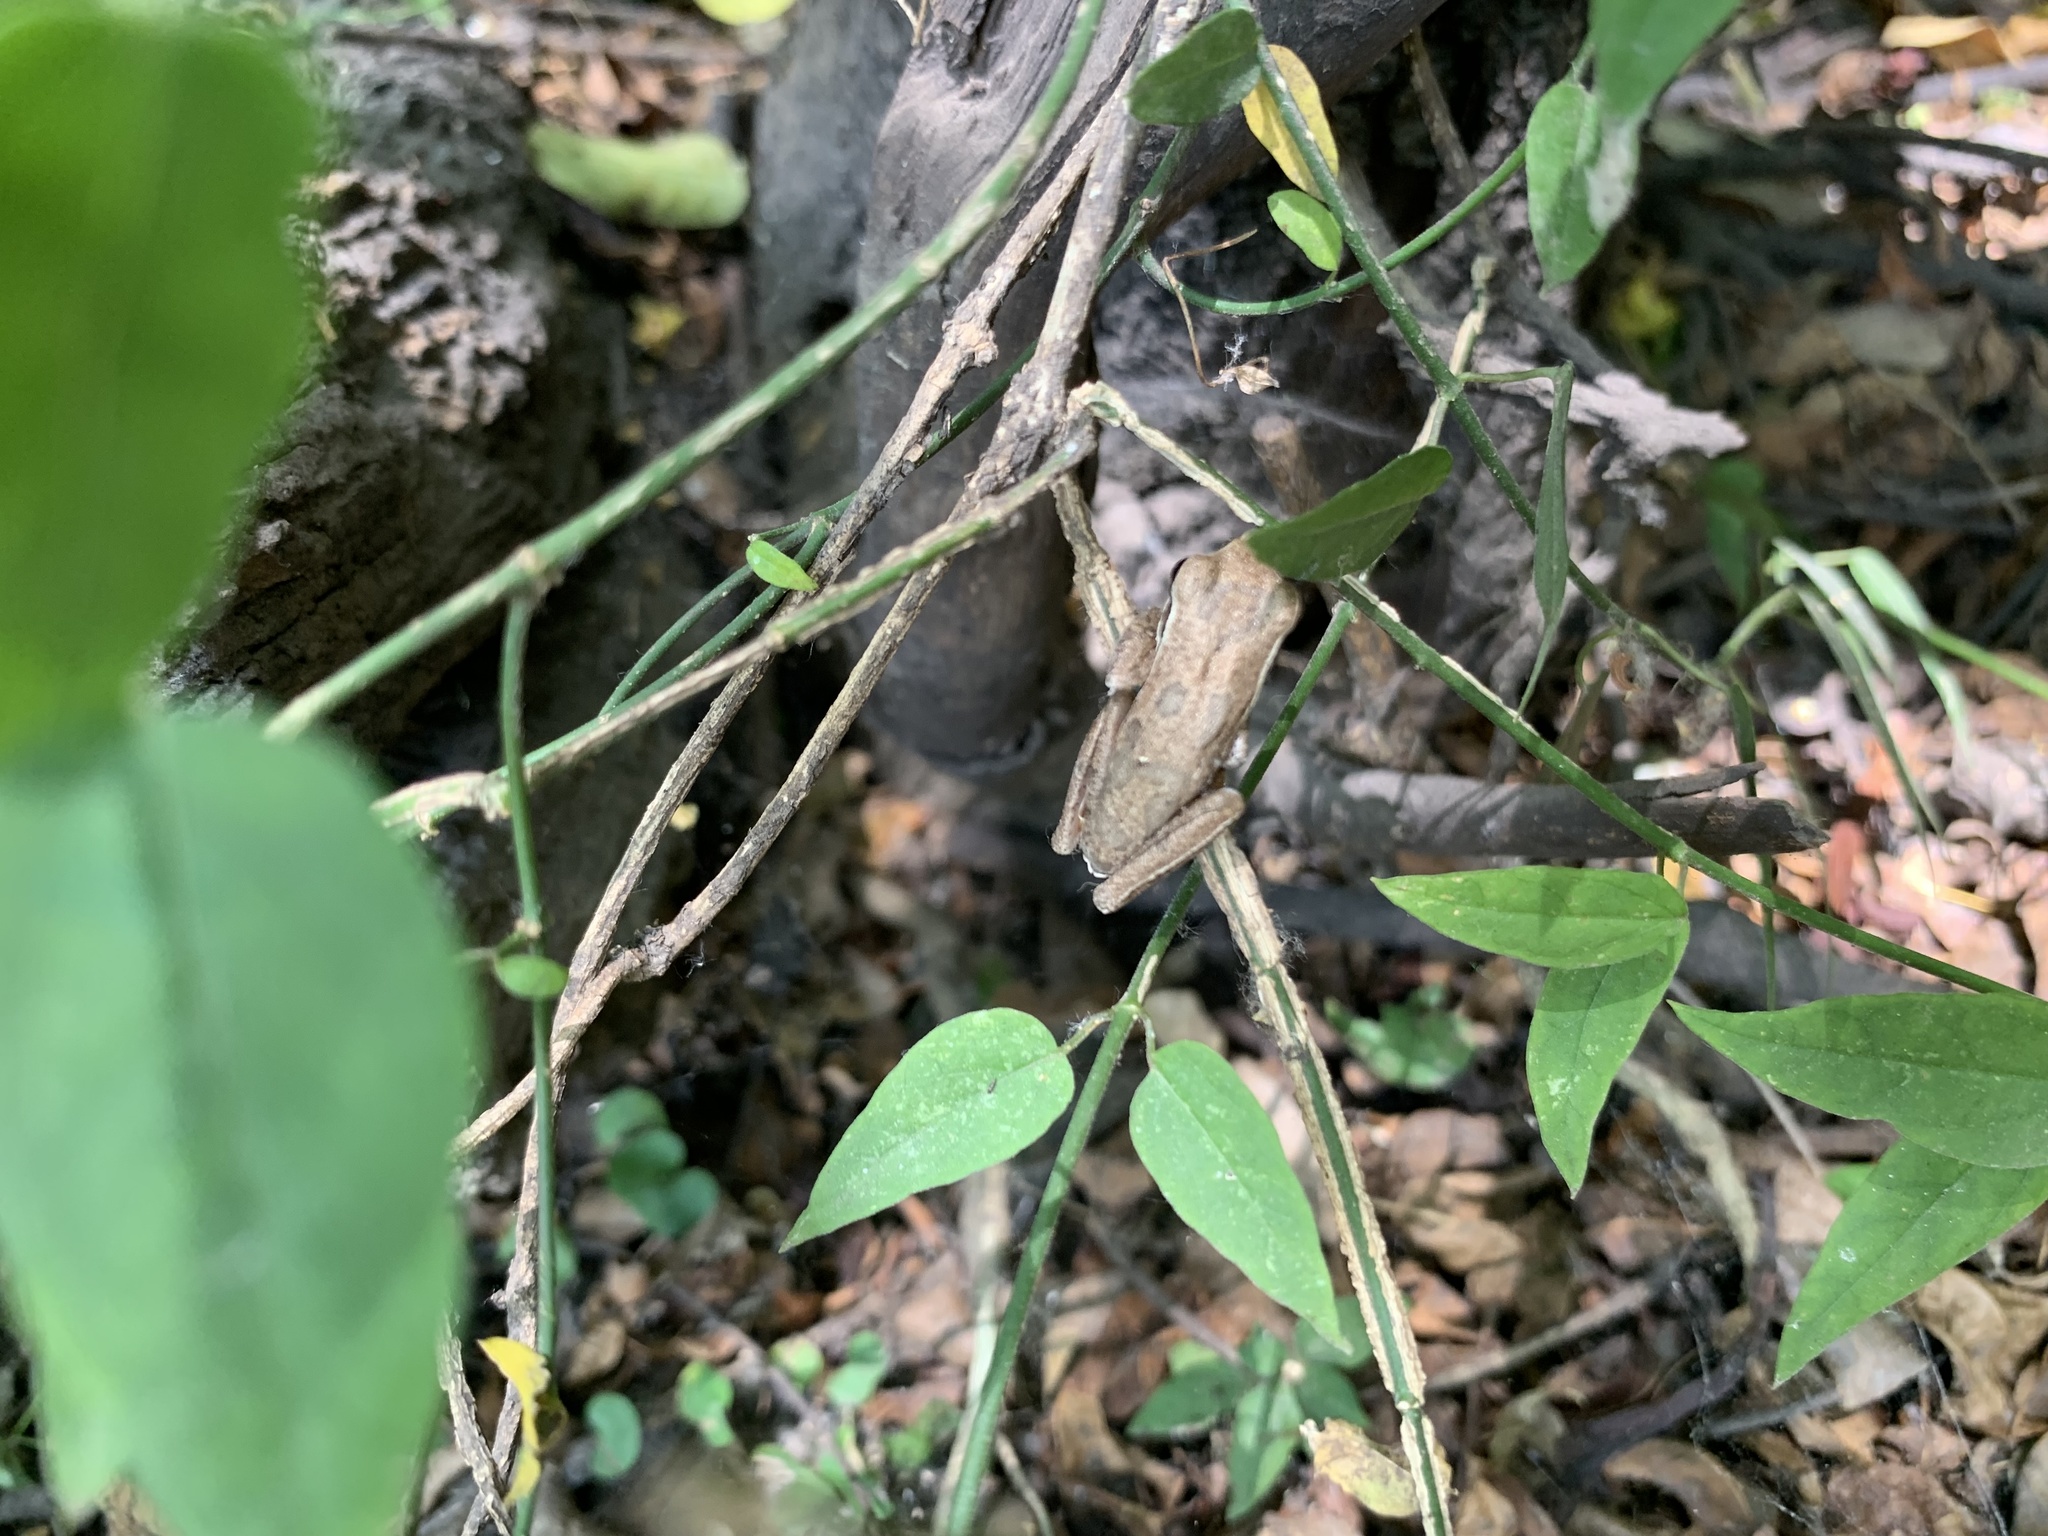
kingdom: Animalia
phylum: Chordata
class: Amphibia
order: Anura
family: Hylidae
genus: Boana
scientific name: Boana pulchella
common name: Montevideo treefrog
